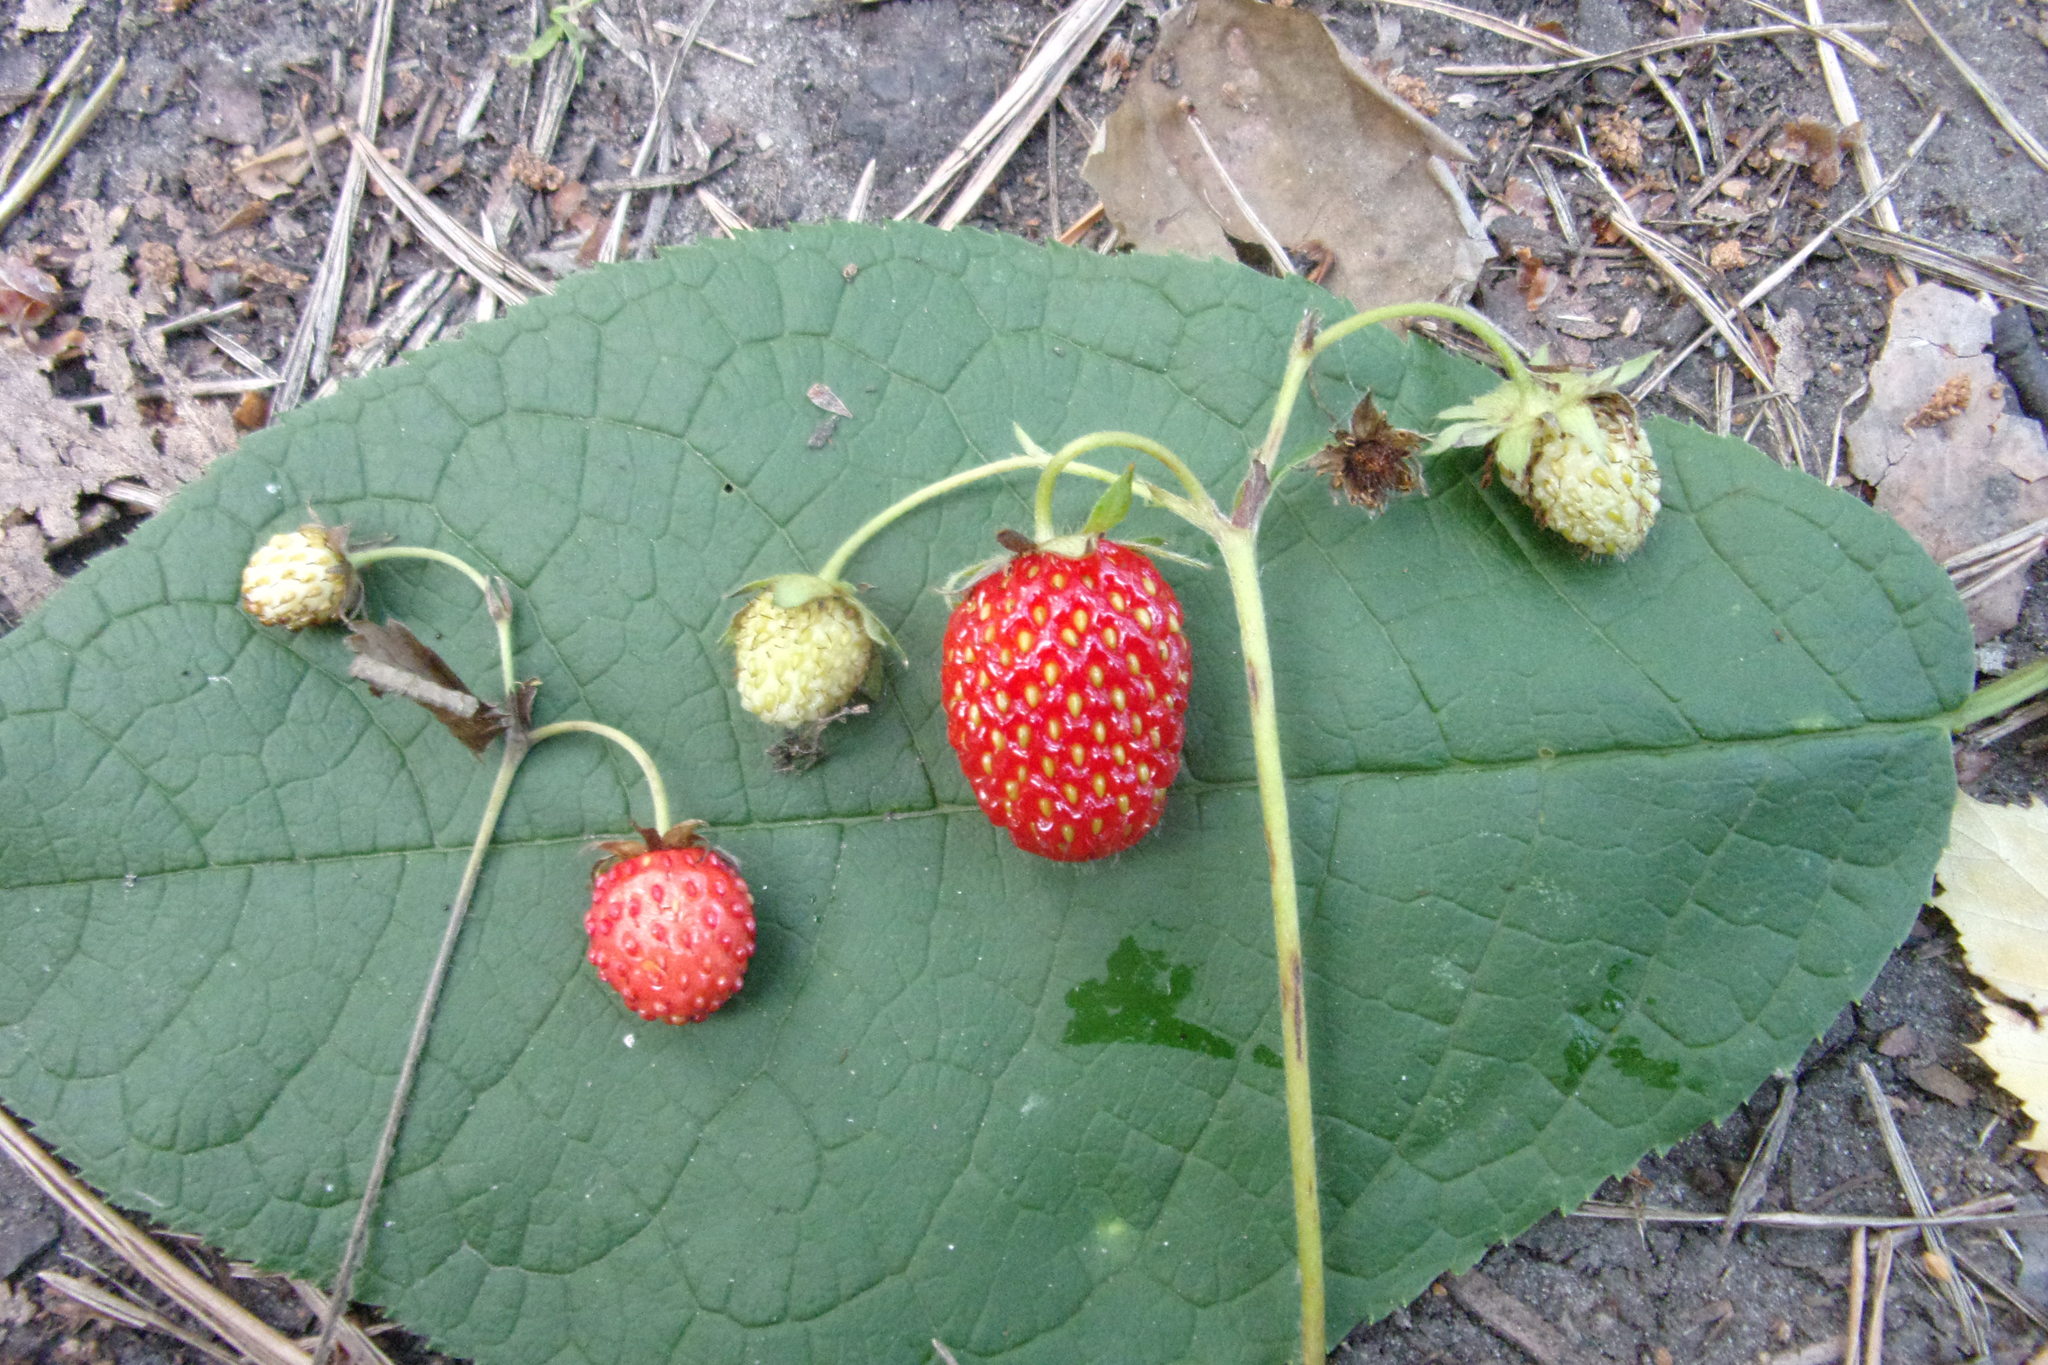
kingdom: Plantae
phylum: Tracheophyta
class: Magnoliopsida
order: Rosales
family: Rosaceae
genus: Fragaria
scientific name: Fragaria ananassa
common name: Garden strawberry
